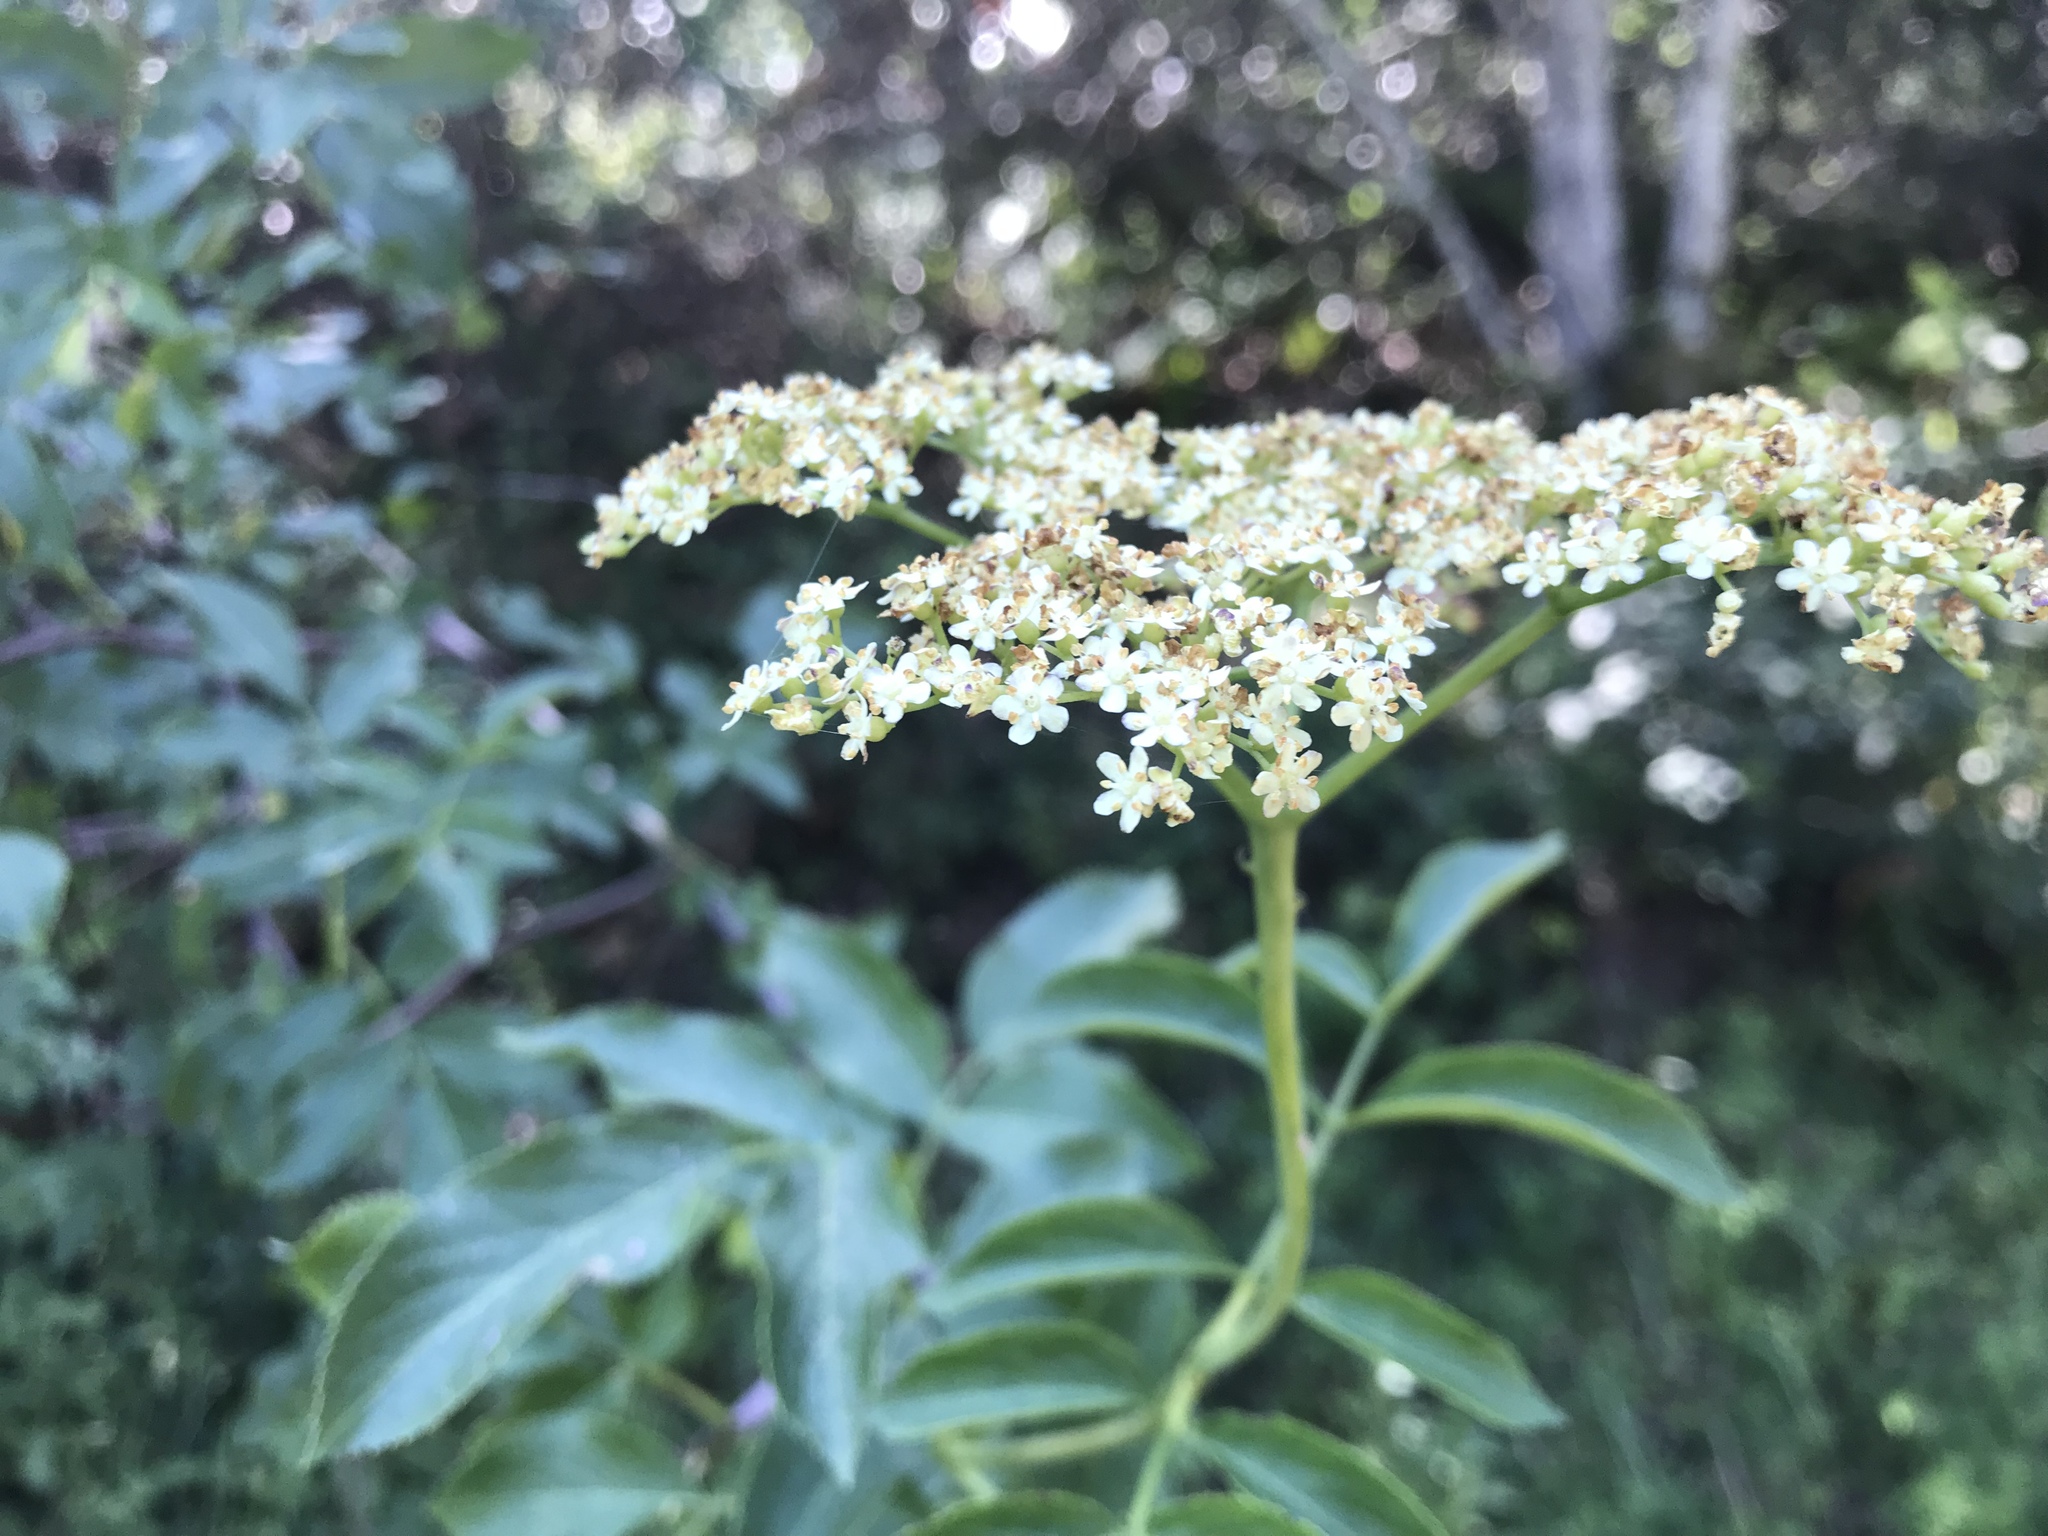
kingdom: Plantae
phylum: Tracheophyta
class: Magnoliopsida
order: Dipsacales
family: Viburnaceae
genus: Sambucus
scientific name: Sambucus cerulea
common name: Blue elder
